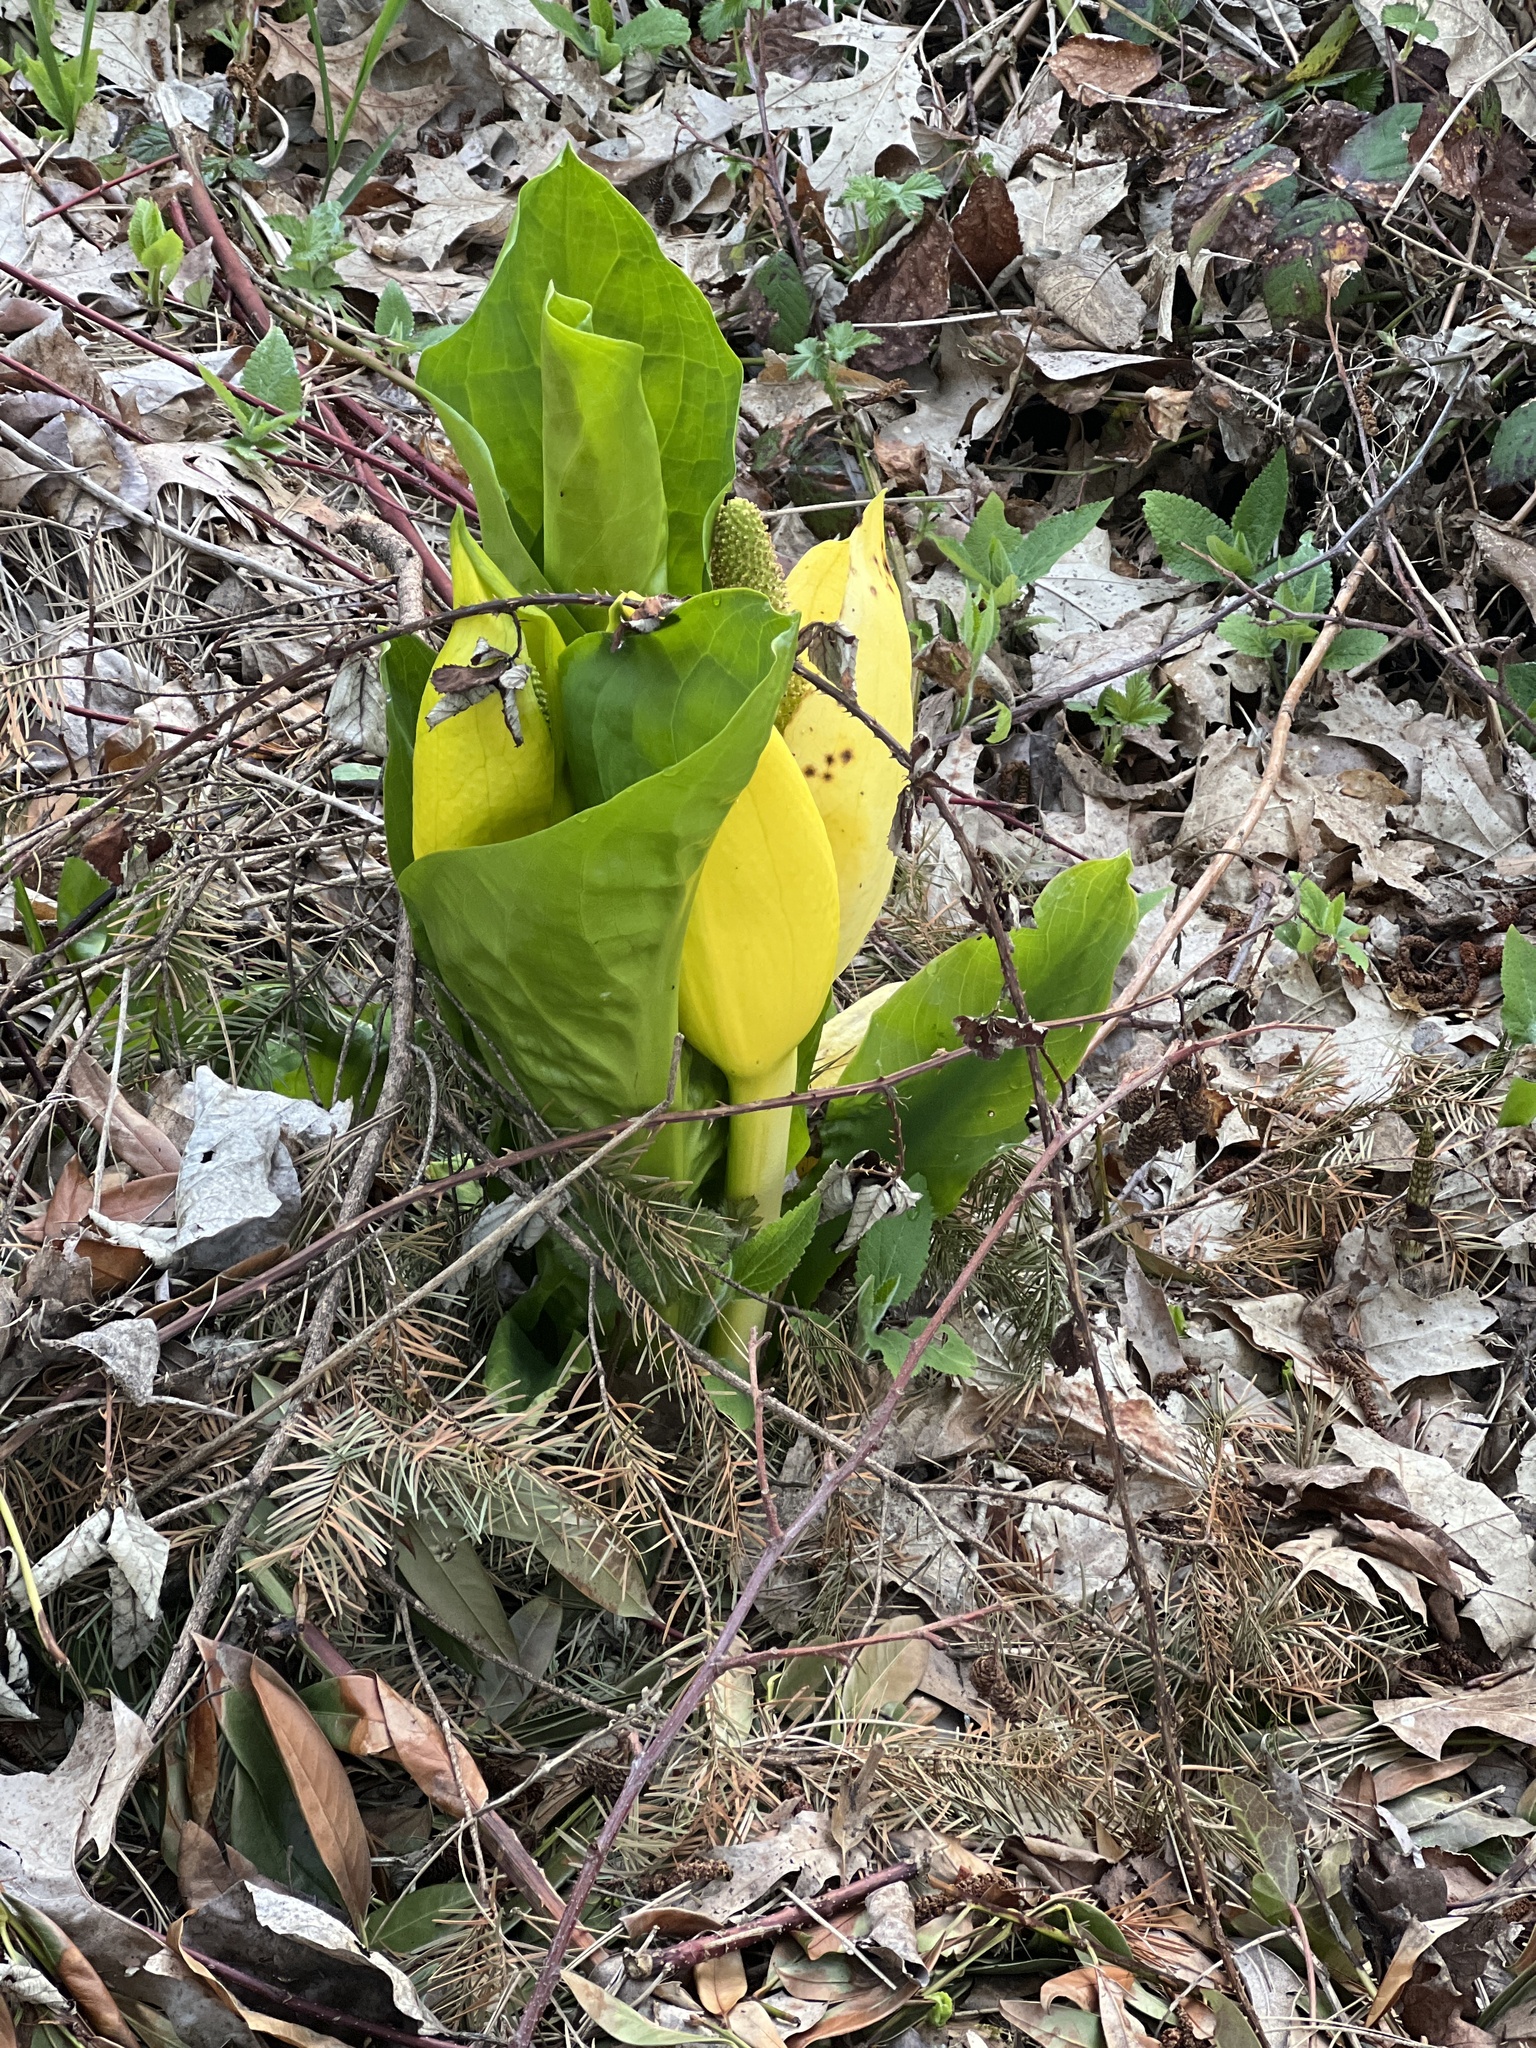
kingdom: Plantae
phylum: Tracheophyta
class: Liliopsida
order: Alismatales
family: Araceae
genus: Lysichiton
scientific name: Lysichiton americanus
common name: American skunk cabbage
